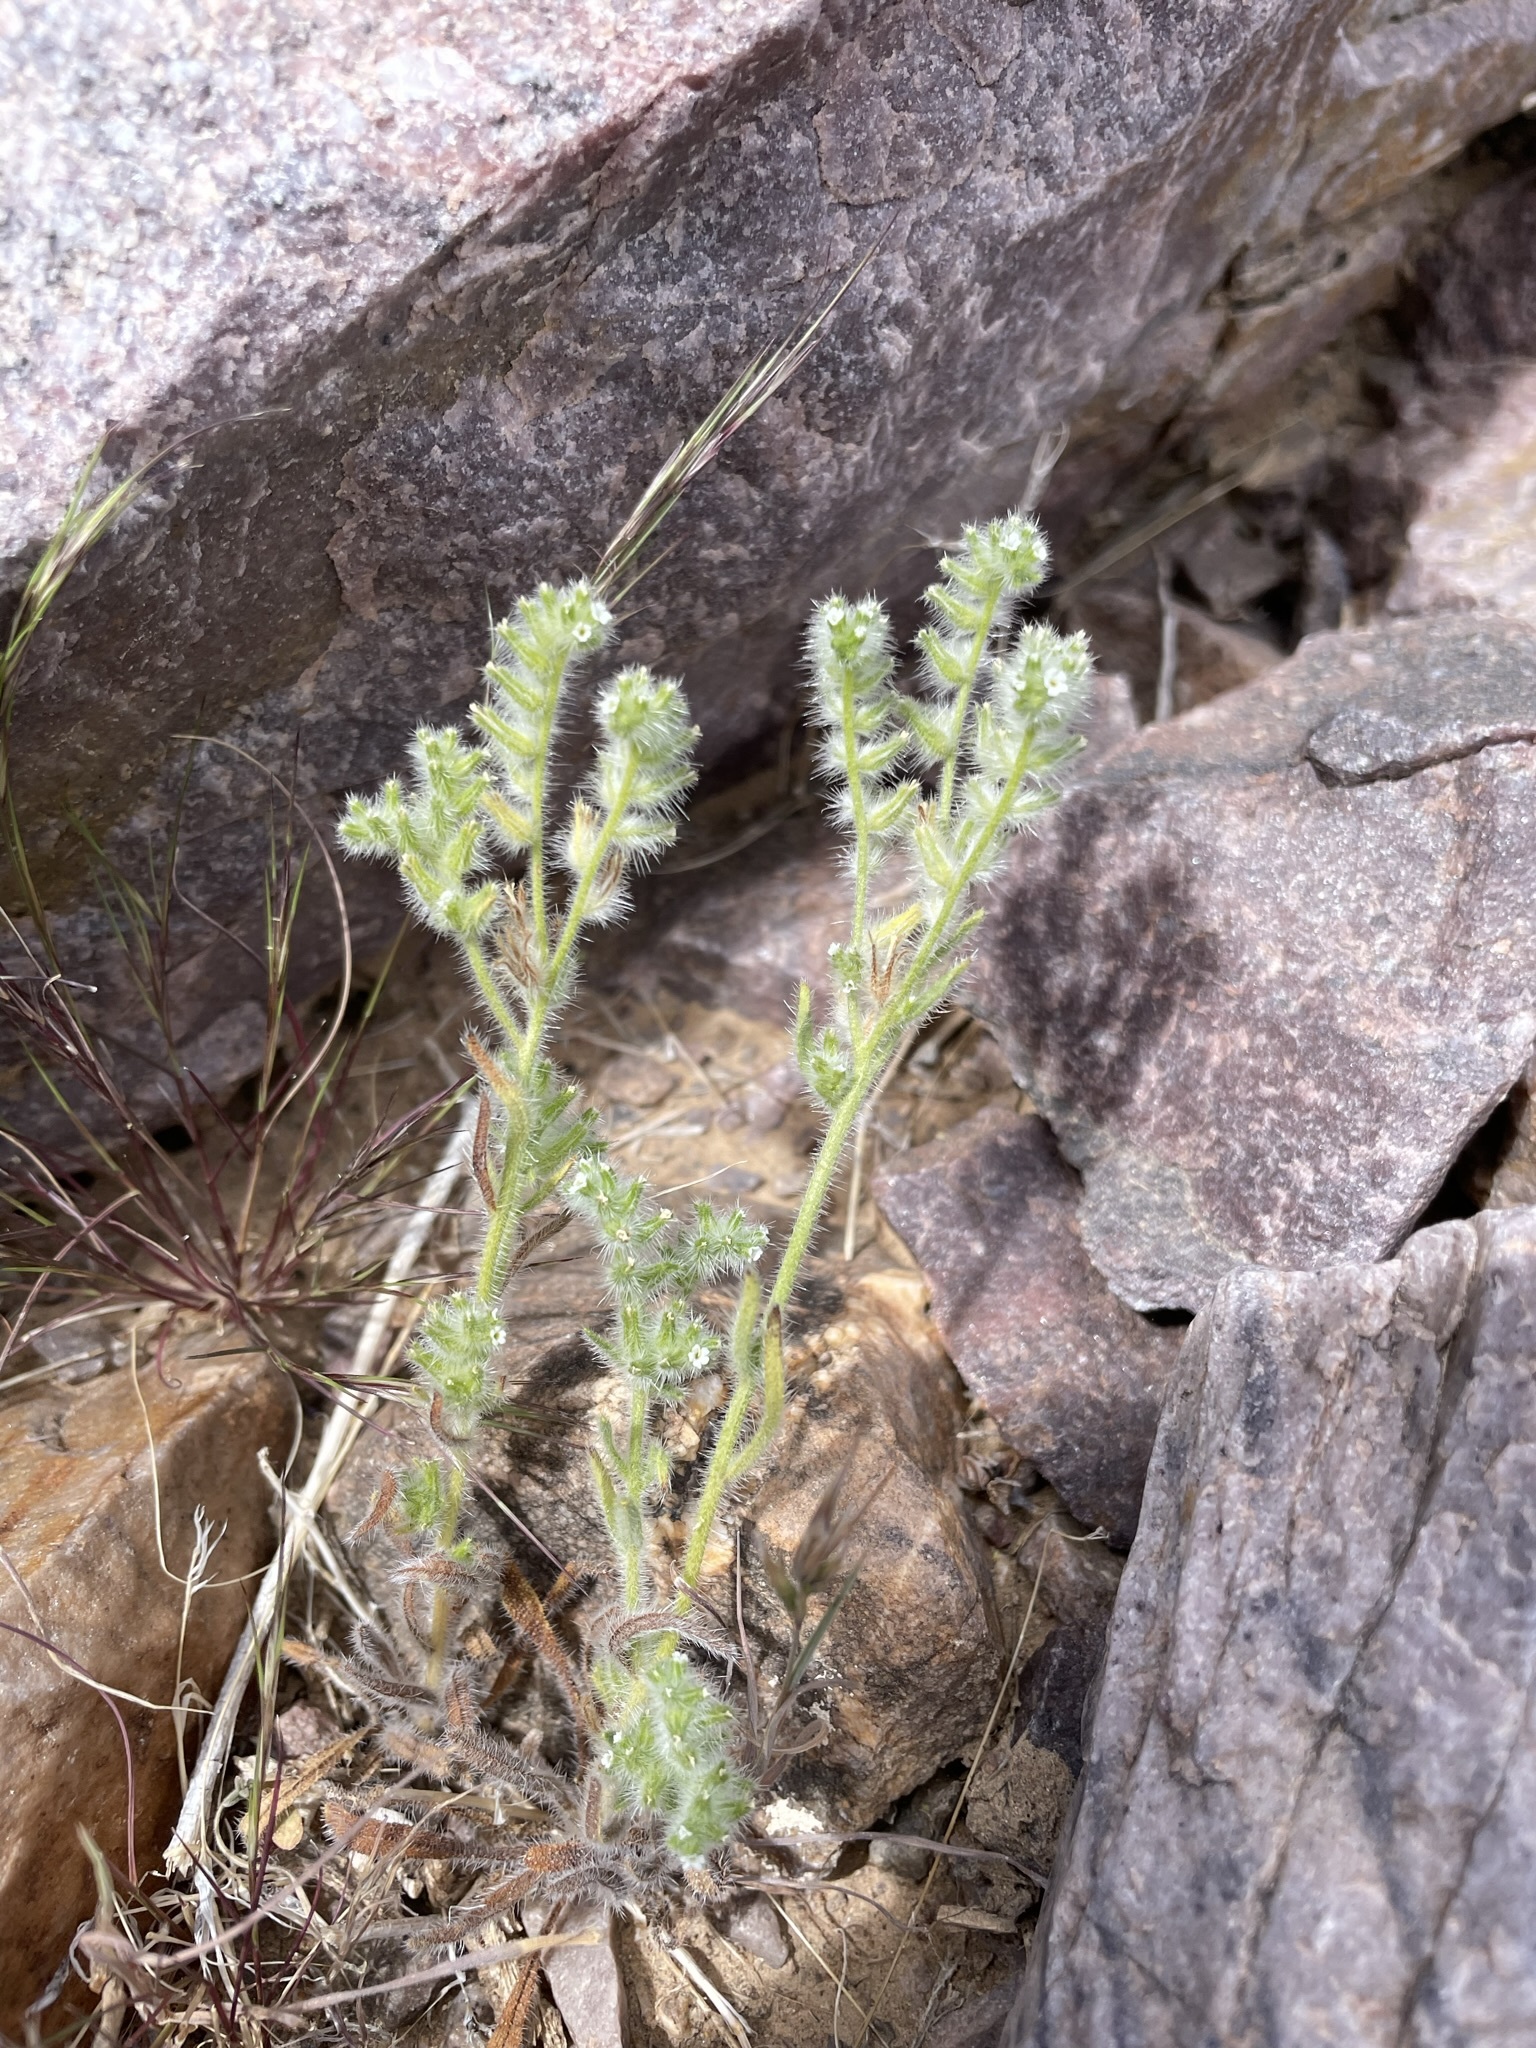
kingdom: Plantae
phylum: Tracheophyta
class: Magnoliopsida
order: Boraginales
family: Boraginaceae
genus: Cryptantha
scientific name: Cryptantha barbigera
